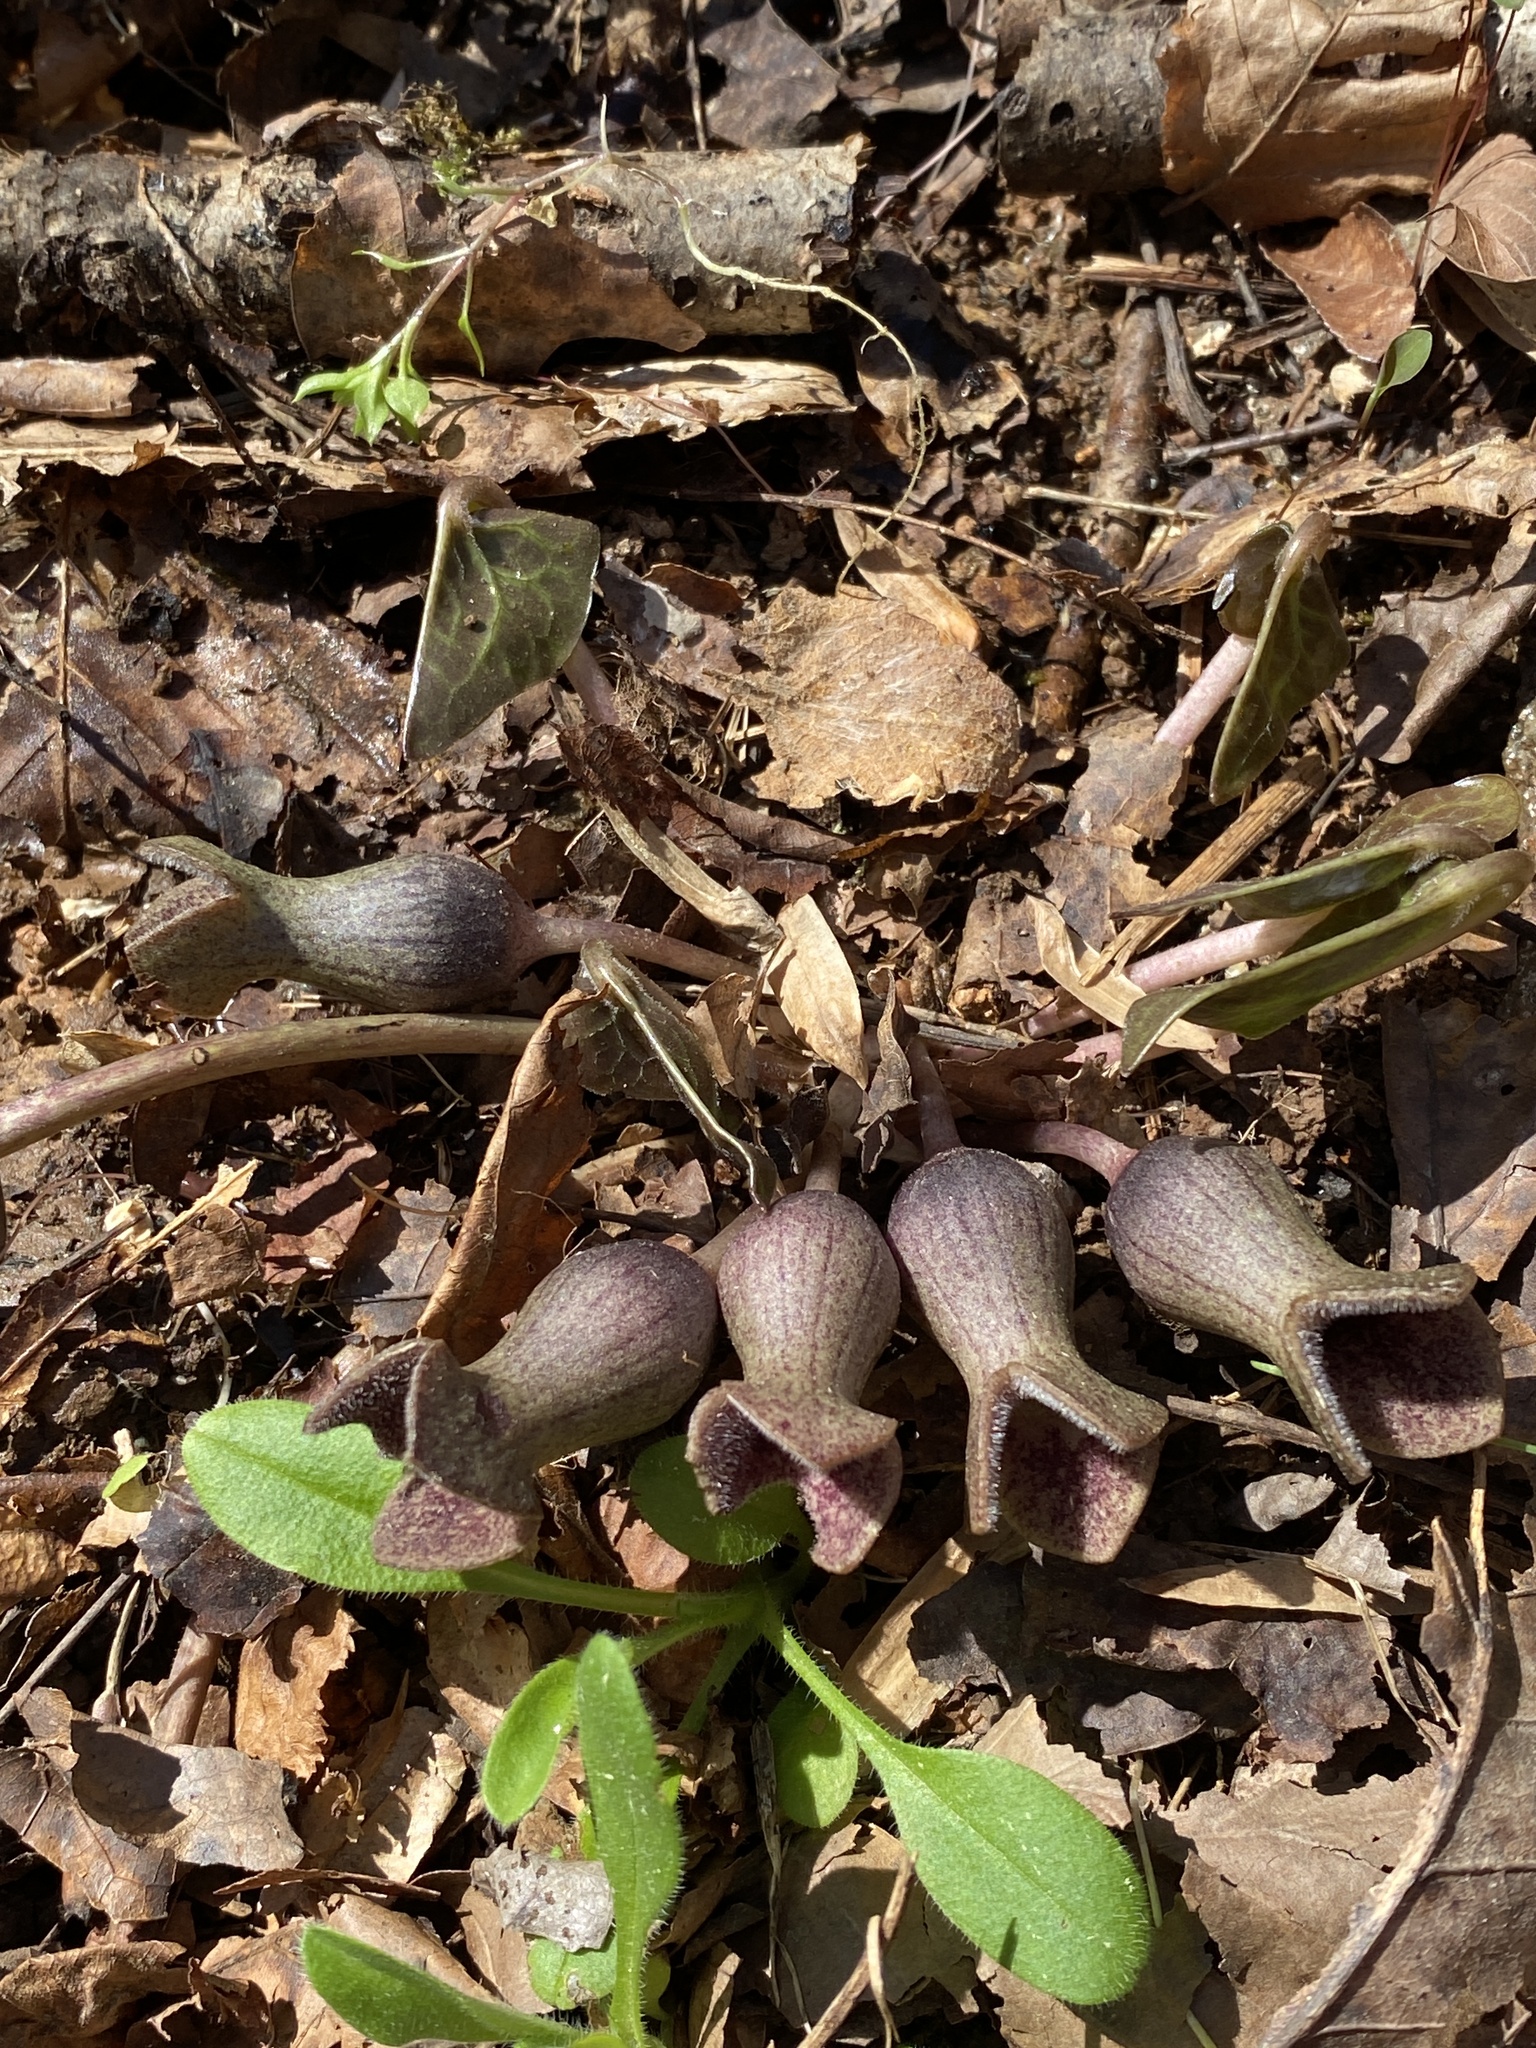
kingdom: Plantae
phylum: Tracheophyta
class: Magnoliopsida
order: Piperales
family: Aristolochiaceae
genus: Hexastylis
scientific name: Hexastylis arifolia
